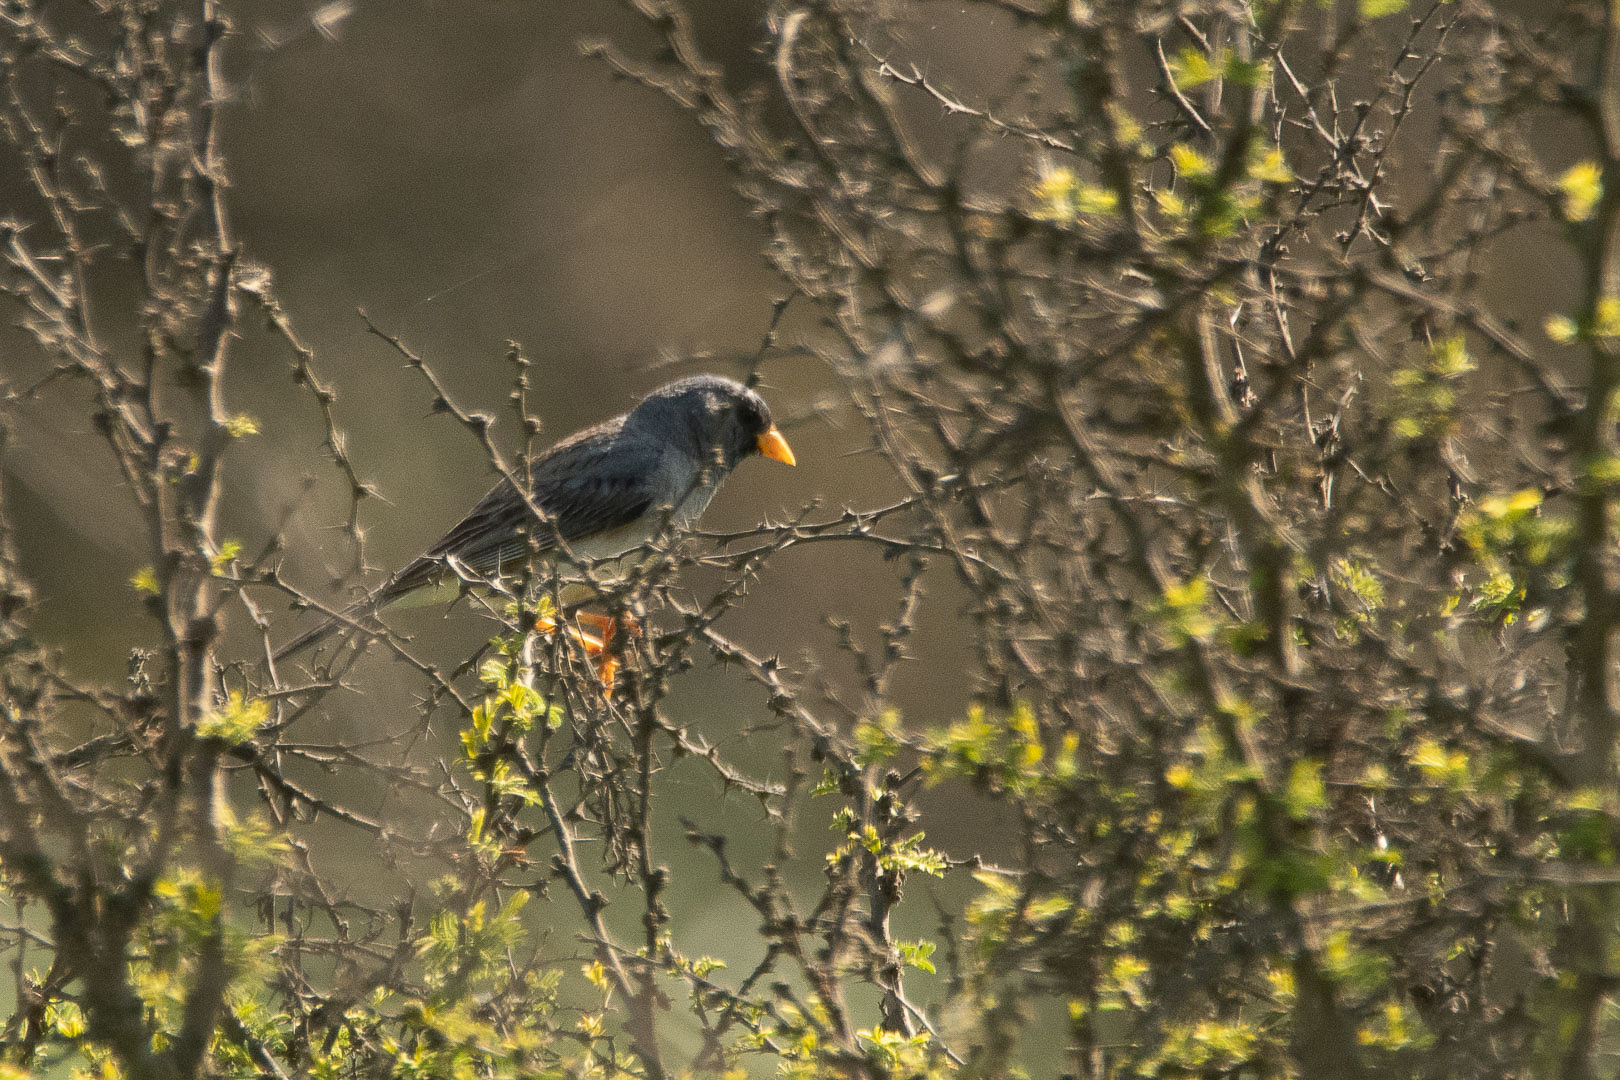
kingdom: Animalia
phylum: Chordata
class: Aves
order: Passeriformes
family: Thraupidae
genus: Porphyrospiza
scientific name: Porphyrospiza alaudina
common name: Band-tailed sierra finch
